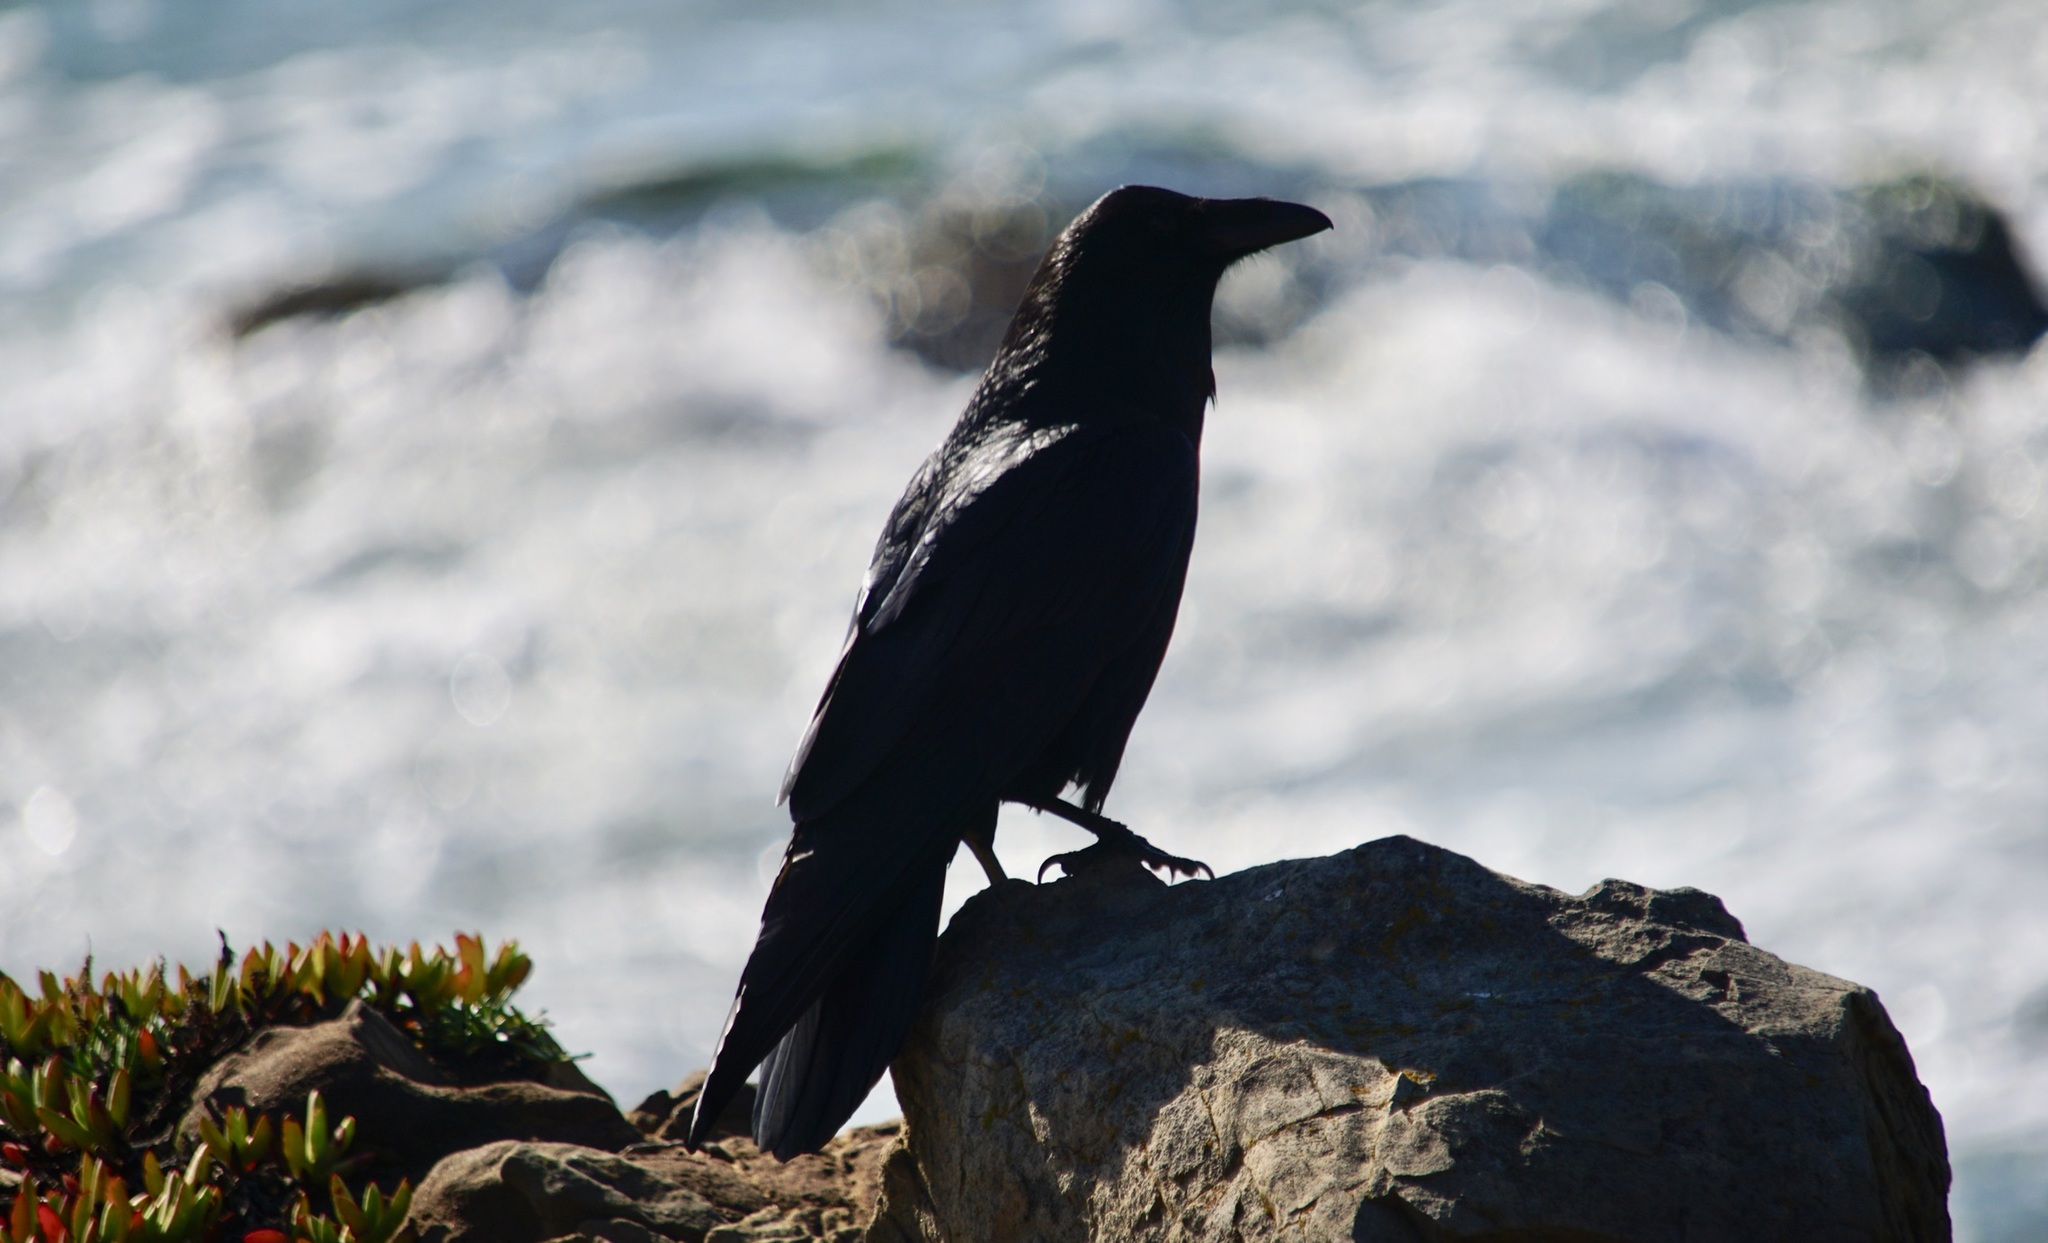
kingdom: Animalia
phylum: Chordata
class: Aves
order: Passeriformes
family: Corvidae
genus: Corvus
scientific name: Corvus corax
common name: Common raven
